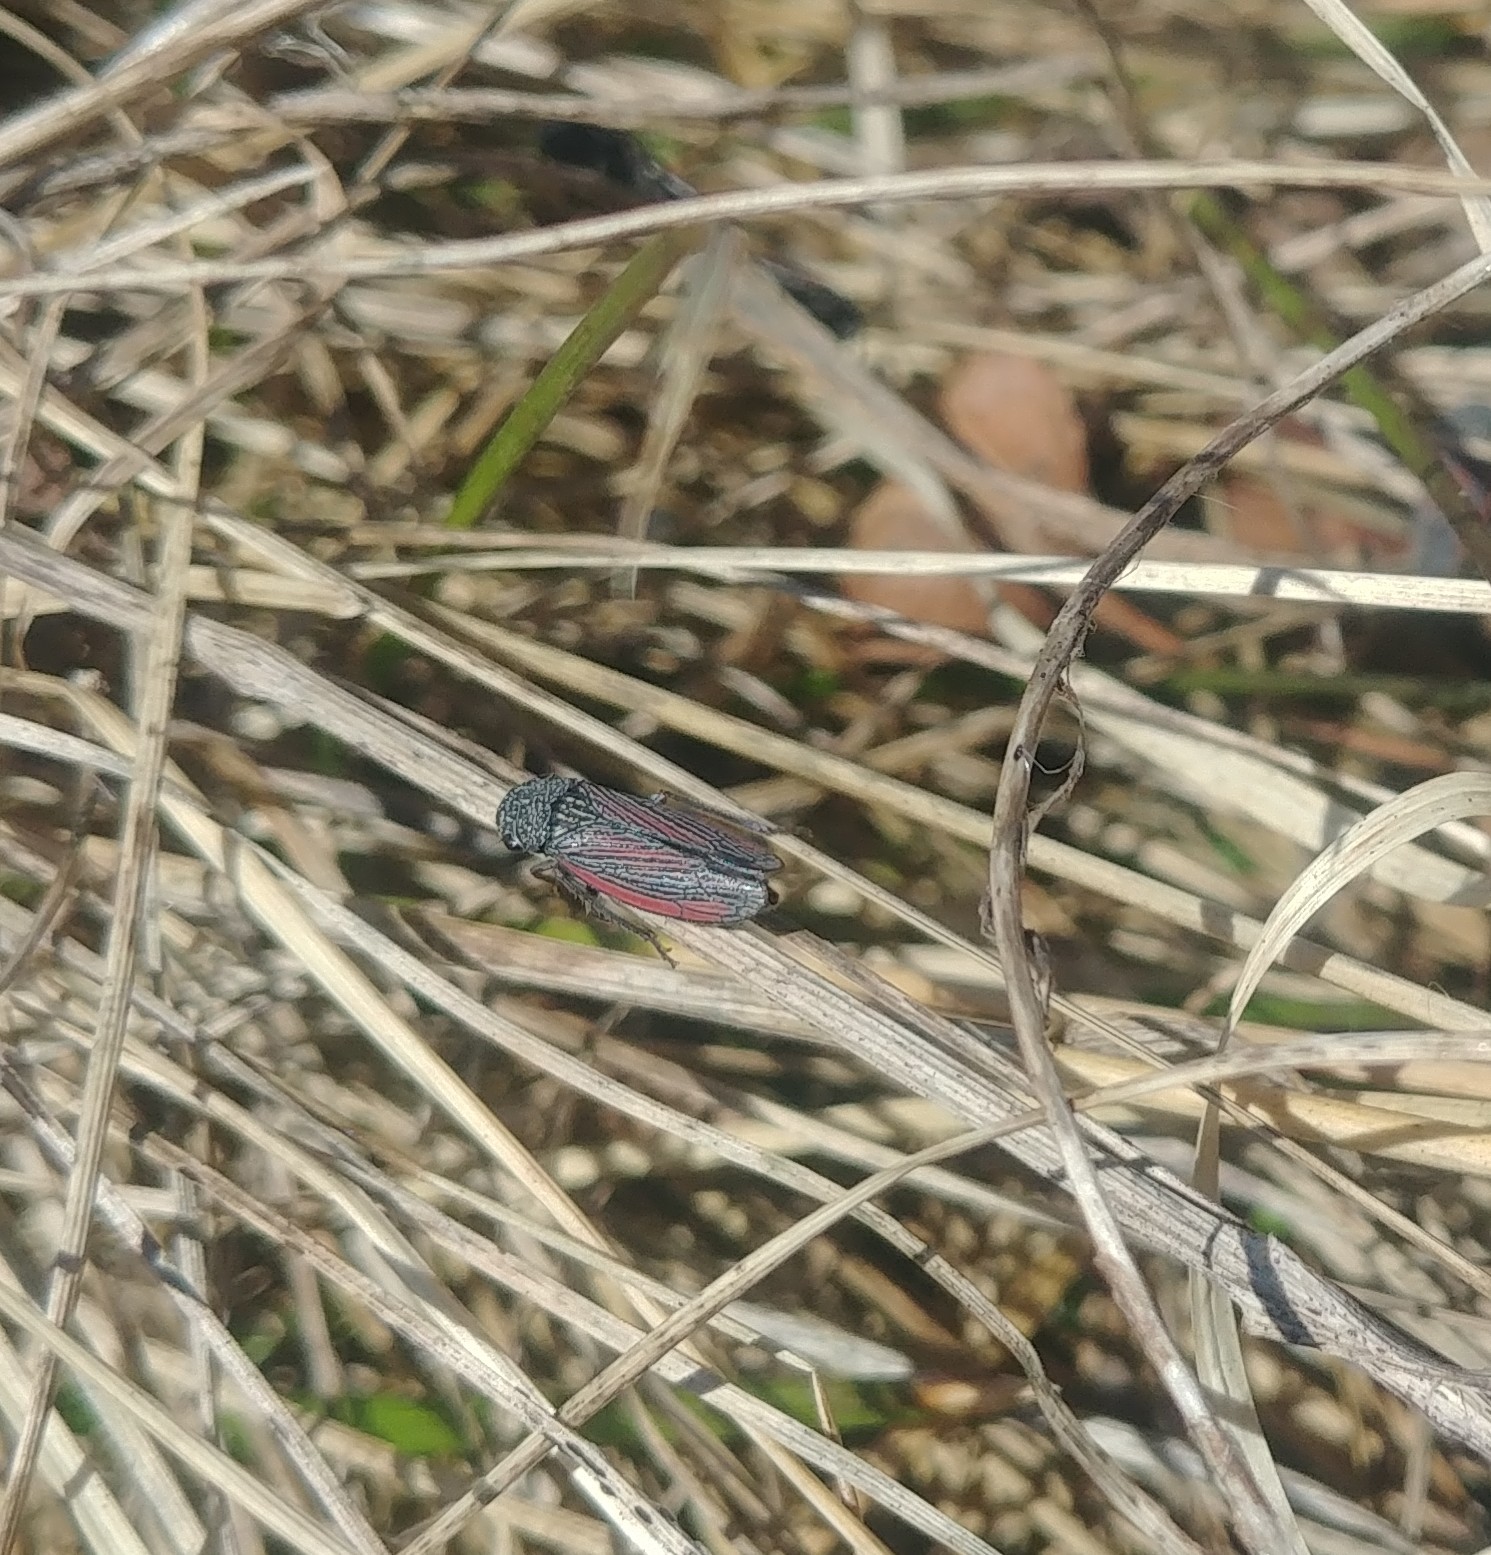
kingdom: Animalia
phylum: Arthropoda
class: Insecta
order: Hemiptera
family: Cicadellidae
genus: Cuerna
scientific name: Cuerna striata
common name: Striped leafhopper
